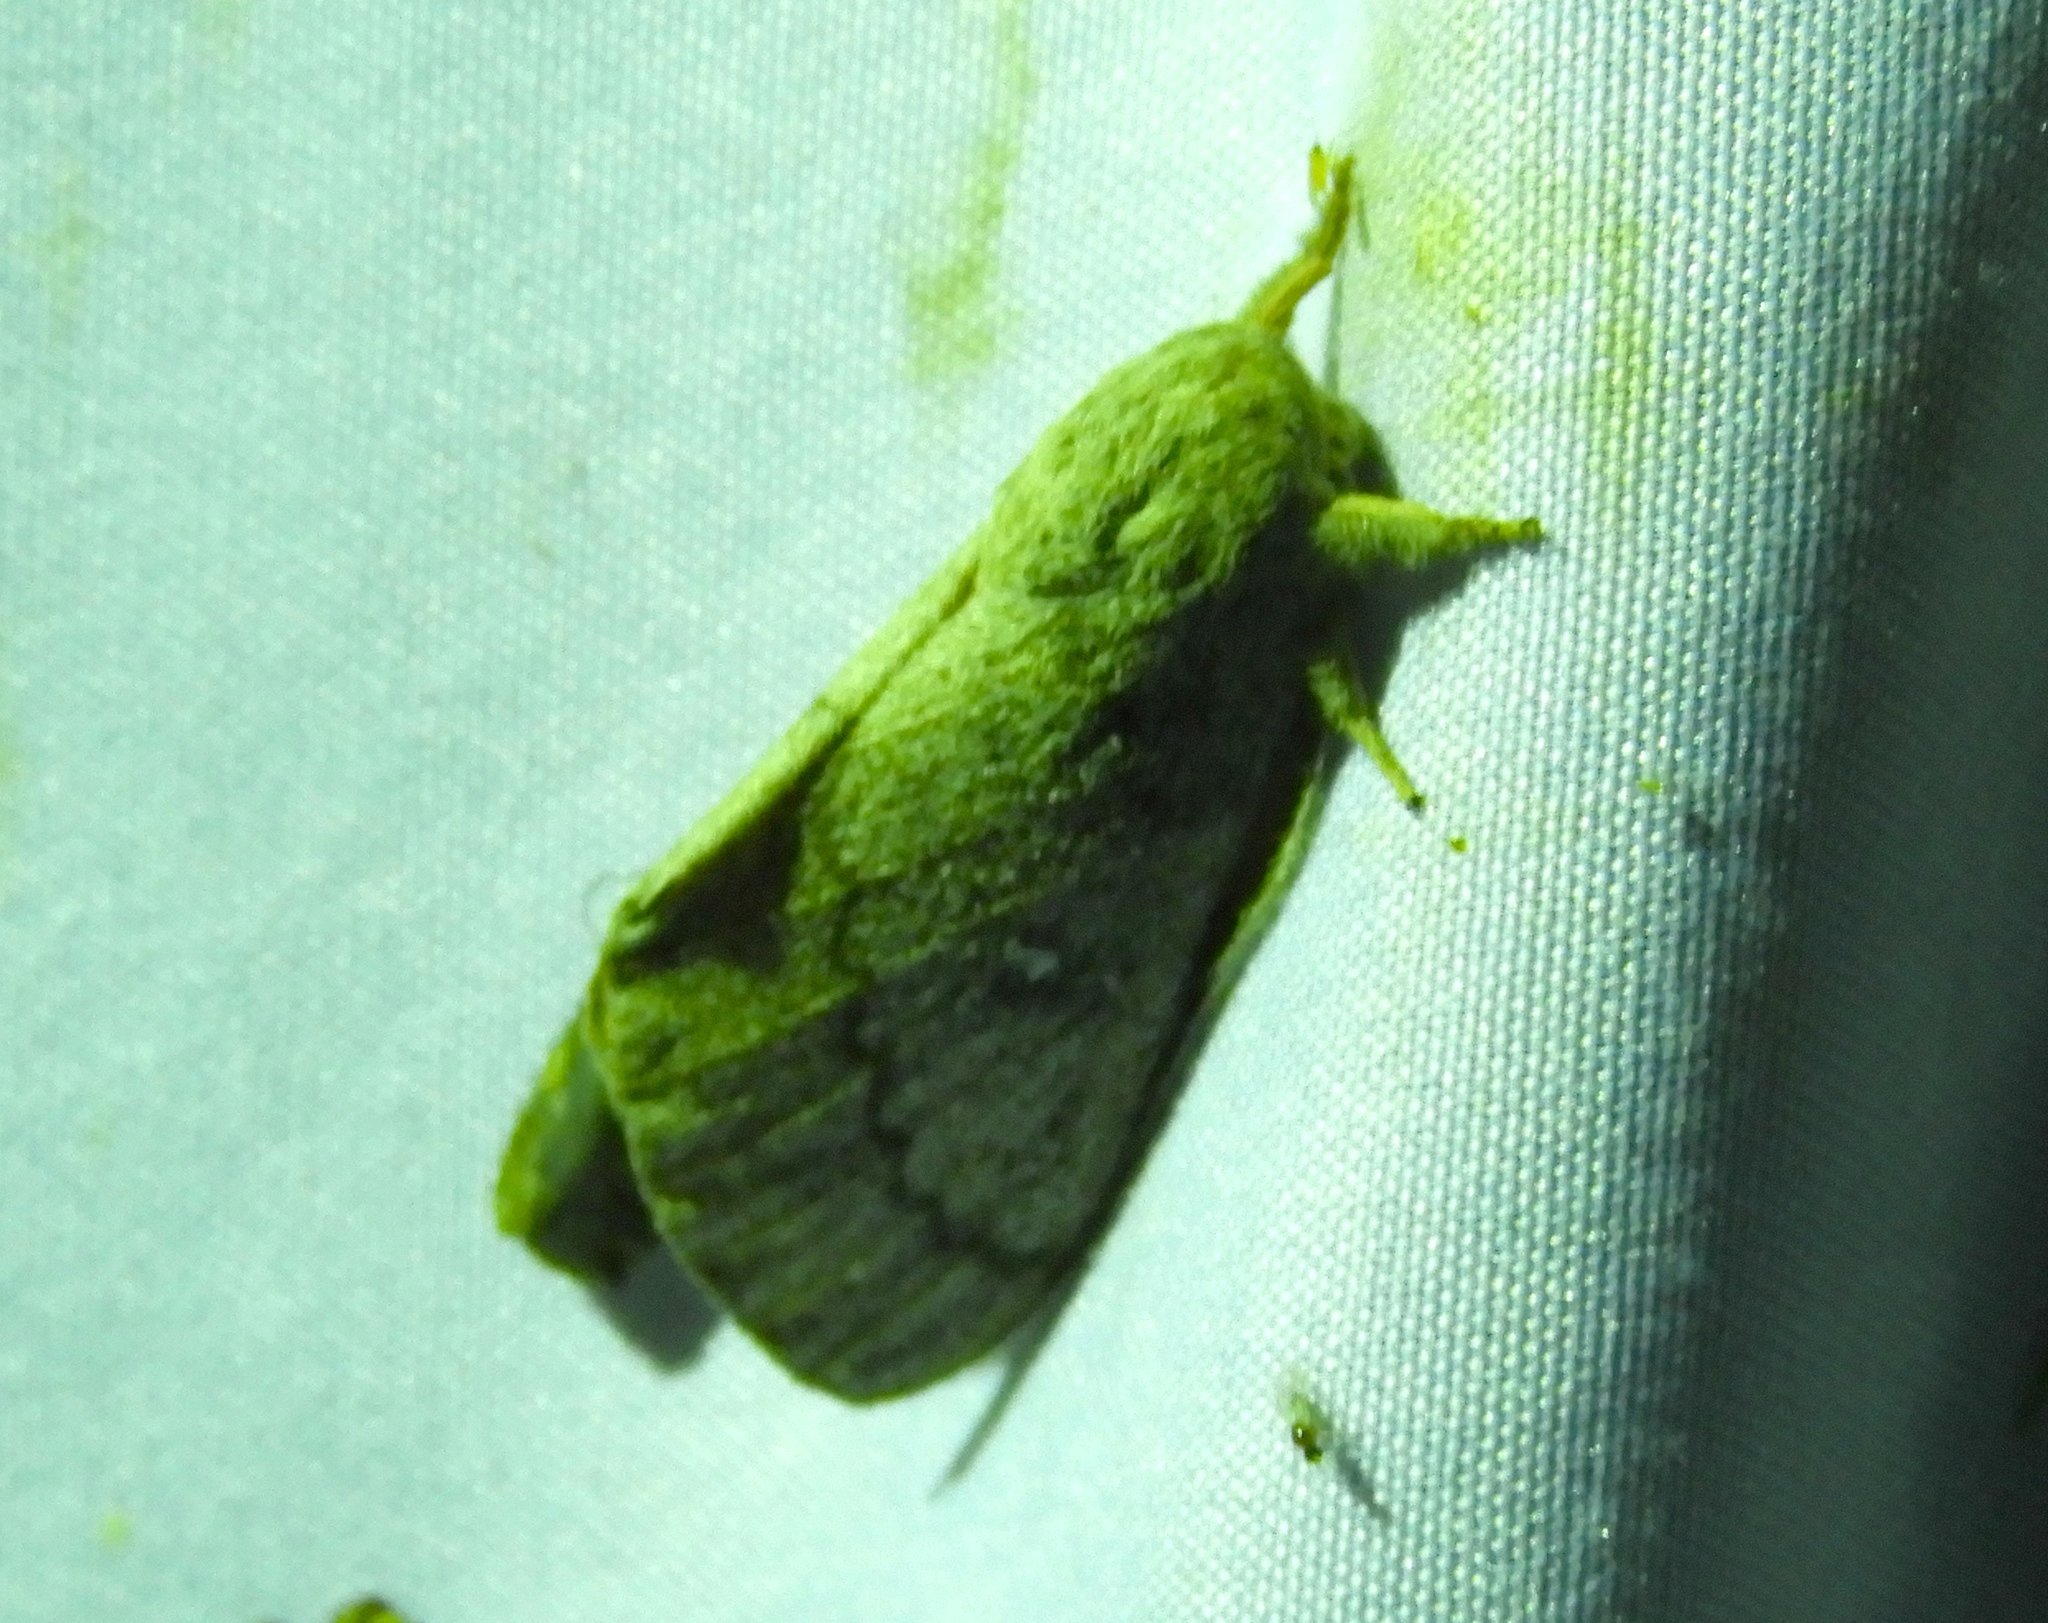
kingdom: Animalia
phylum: Arthropoda
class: Insecta
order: Lepidoptera
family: Saturniidae
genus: Syssphinx
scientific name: Syssphinx
